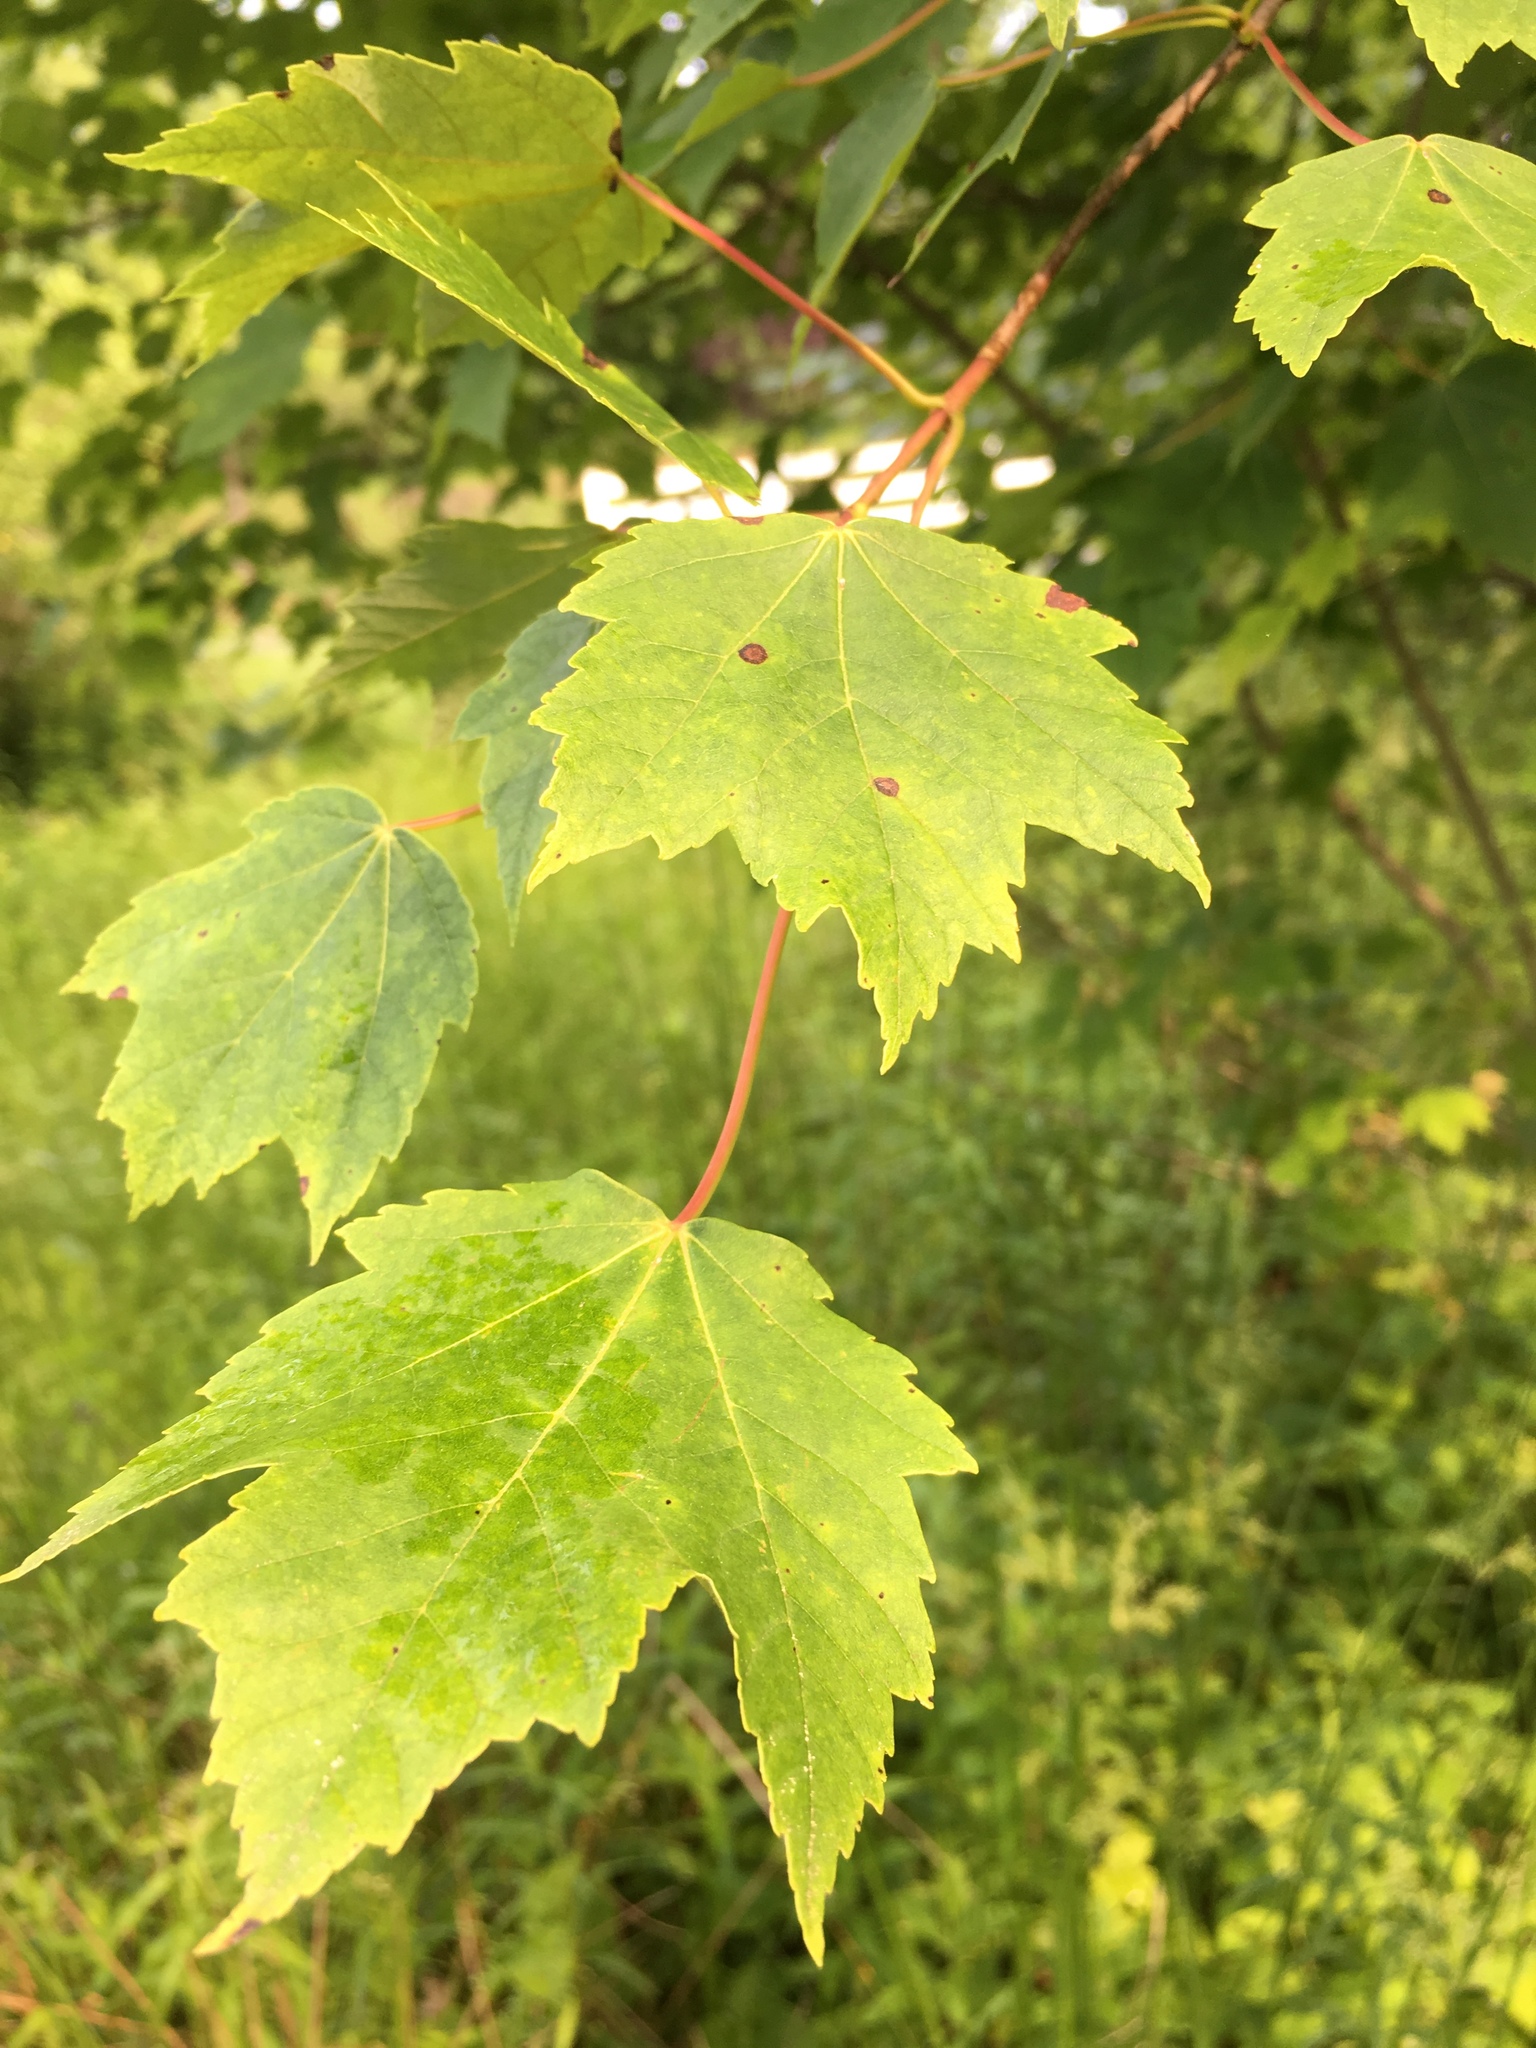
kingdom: Plantae
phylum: Tracheophyta
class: Magnoliopsida
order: Sapindales
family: Sapindaceae
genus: Acer
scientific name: Acer rubrum
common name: Red maple
